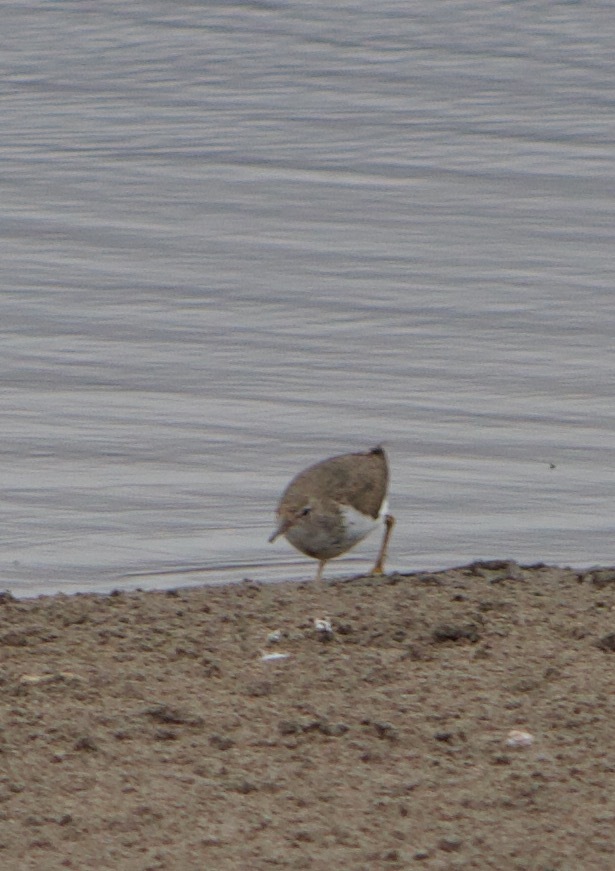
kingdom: Animalia
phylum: Chordata
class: Aves
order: Charadriiformes
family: Charadriidae
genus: Charadrius
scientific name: Charadrius modestus
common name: Rufous-chested plover
